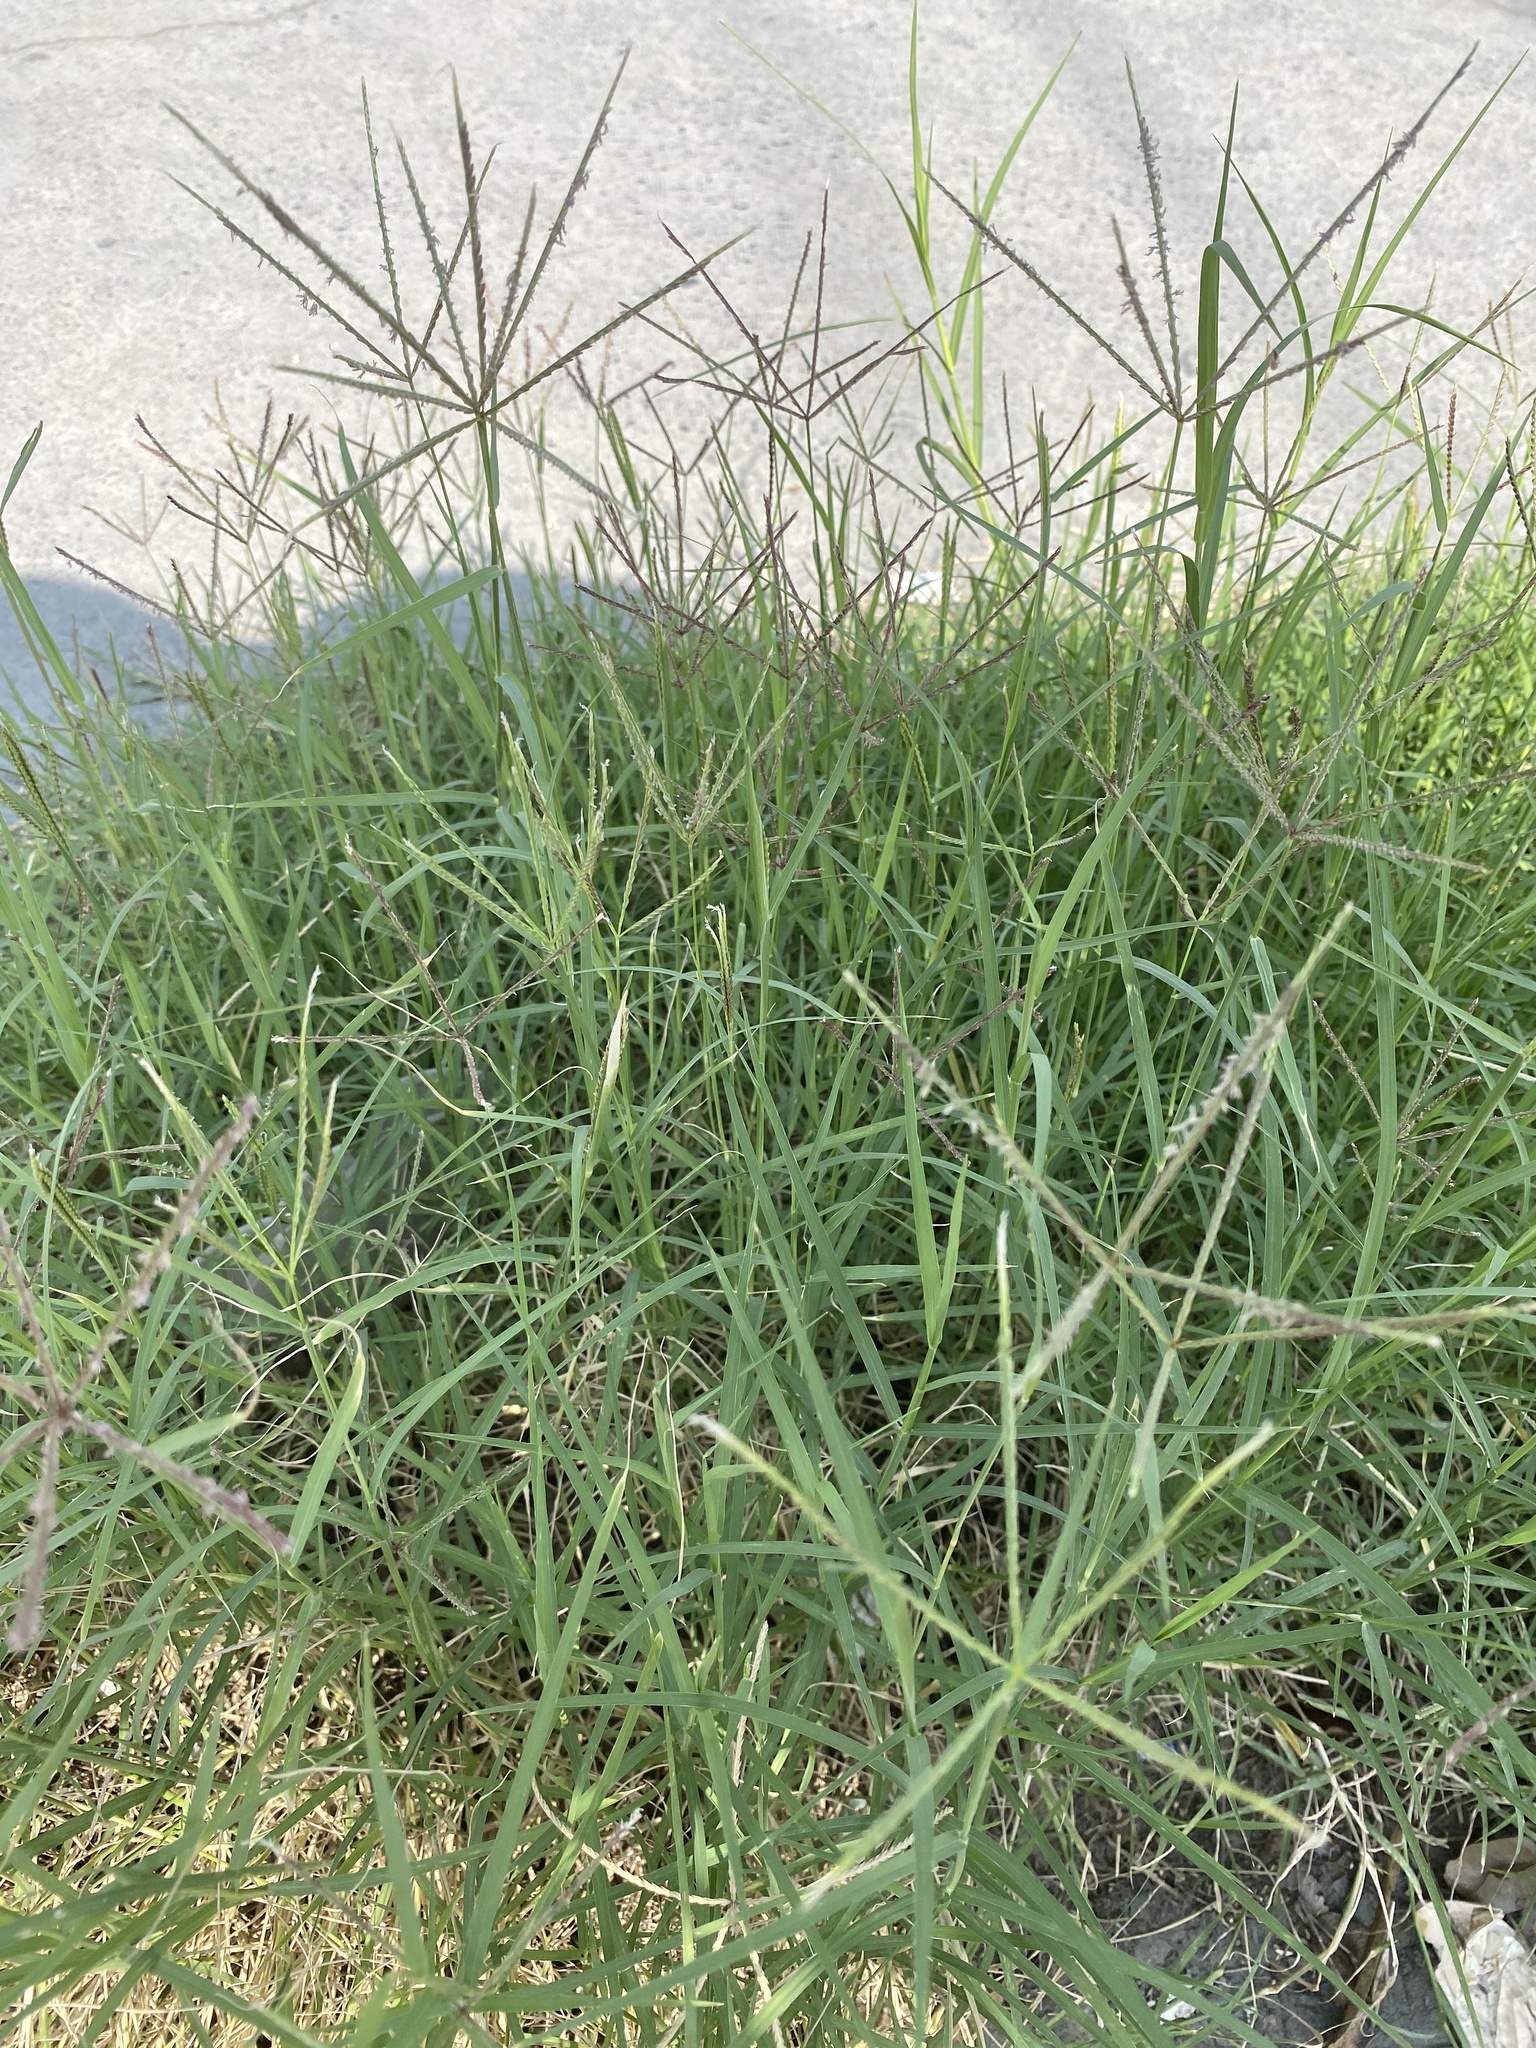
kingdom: Plantae
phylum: Tracheophyta
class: Liliopsida
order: Poales
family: Poaceae
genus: Cynodon
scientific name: Cynodon dactylon
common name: Bermuda grass
